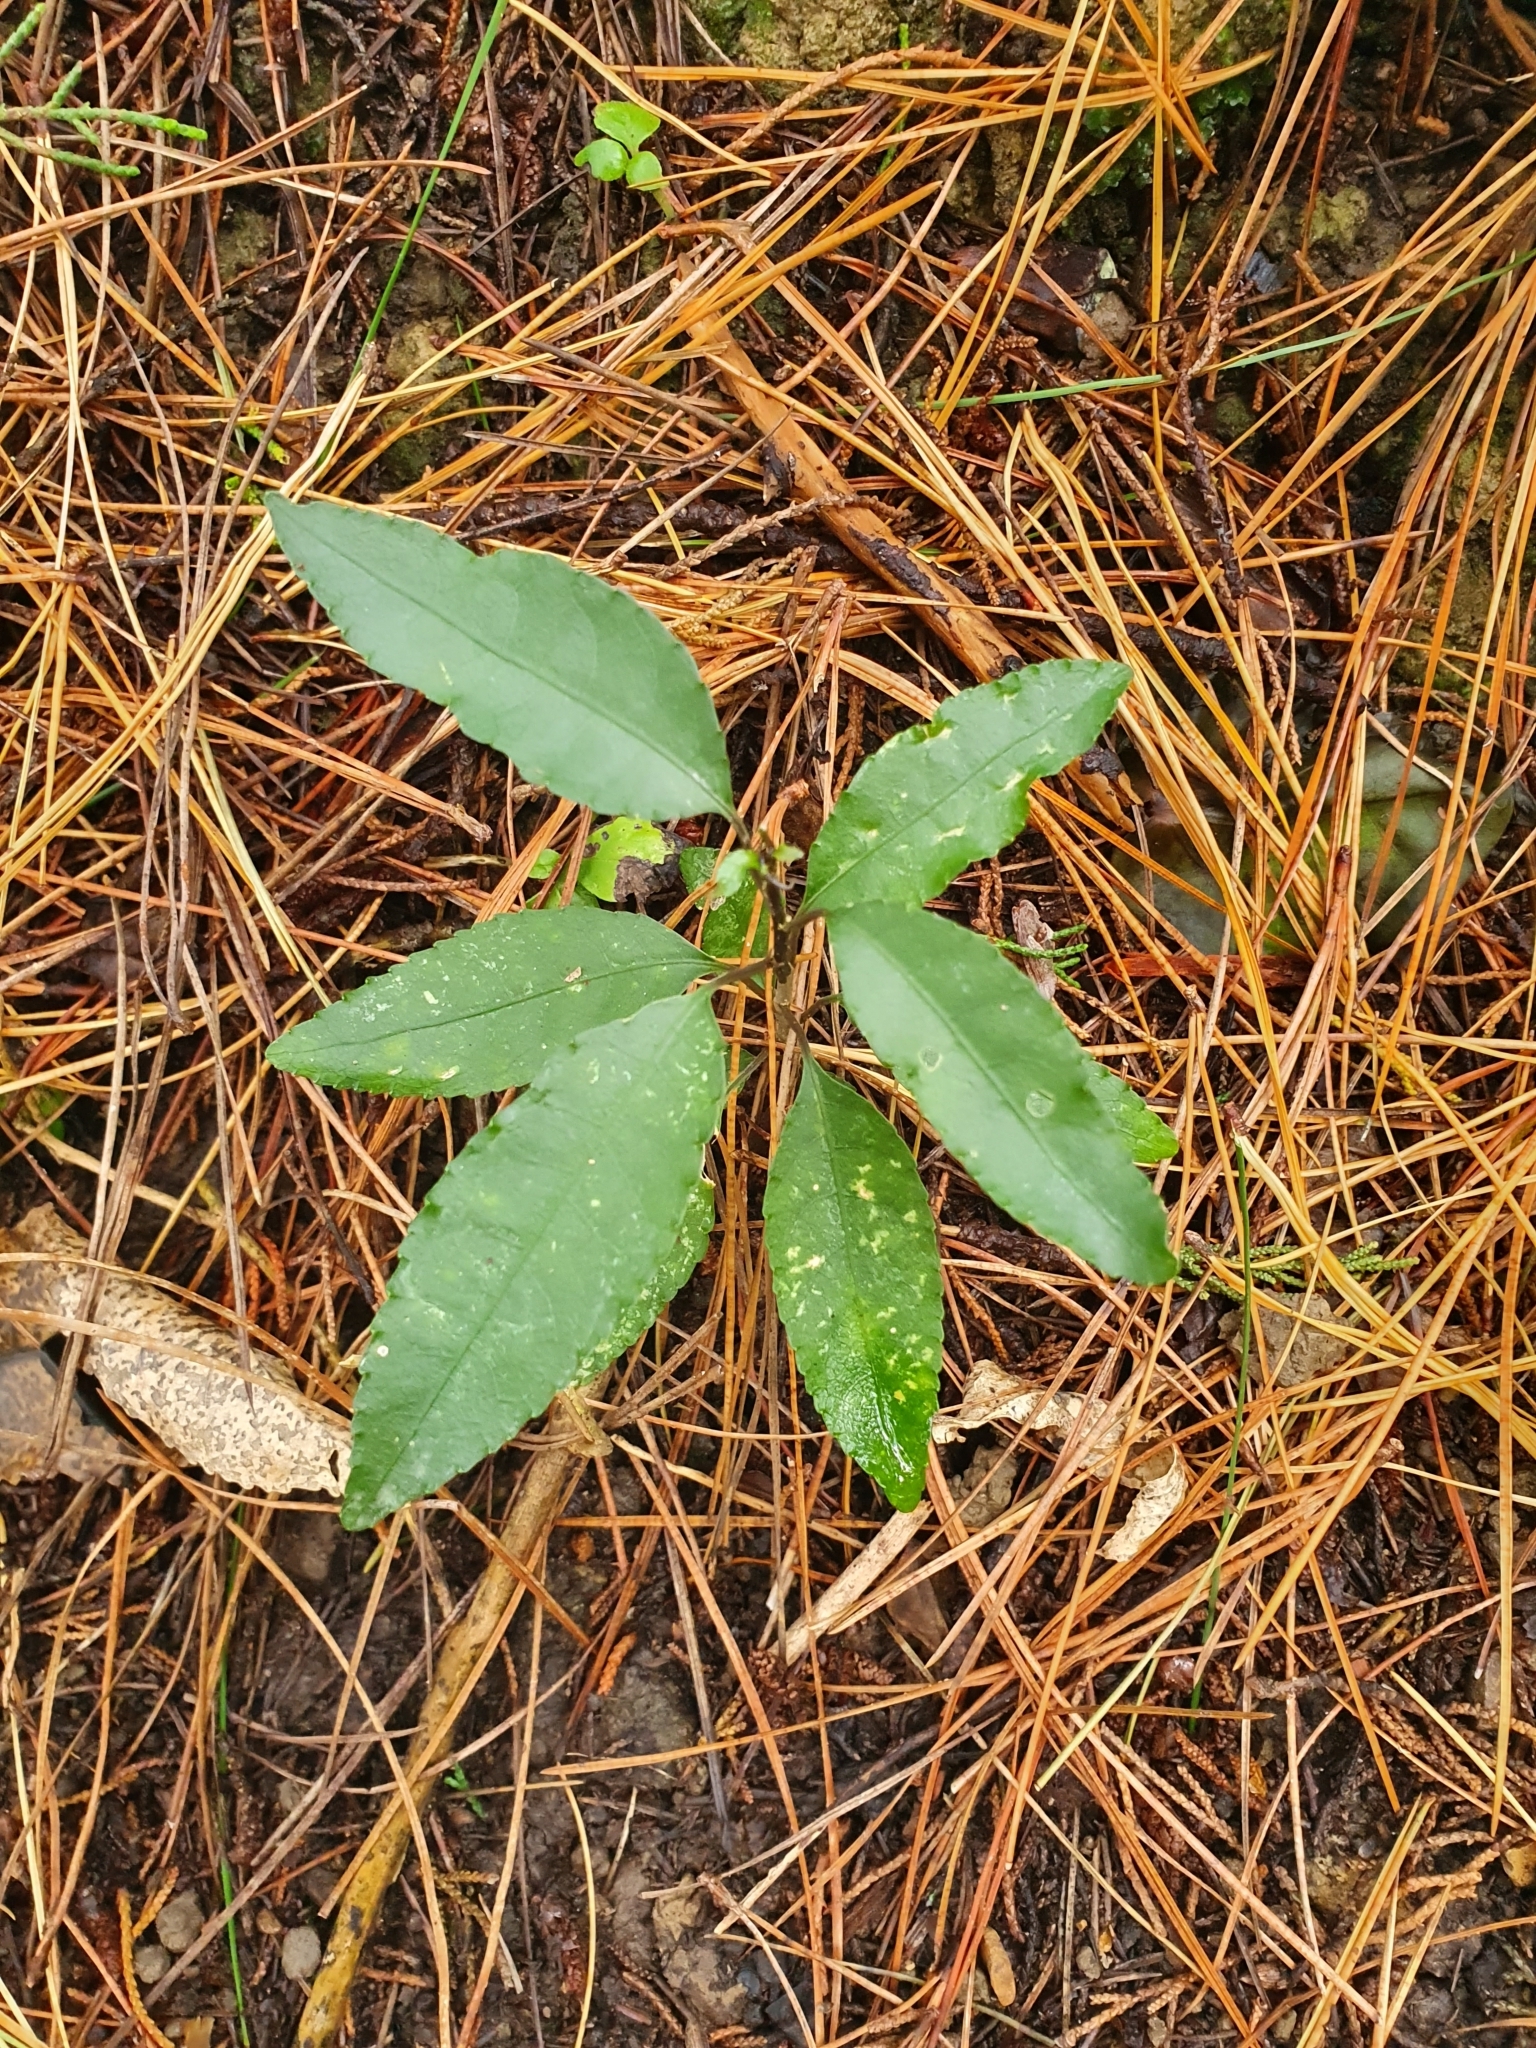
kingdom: Plantae
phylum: Tracheophyta
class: Magnoliopsida
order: Malpighiales
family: Violaceae
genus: Melicytus
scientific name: Melicytus ramiflorus
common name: Mahoe
